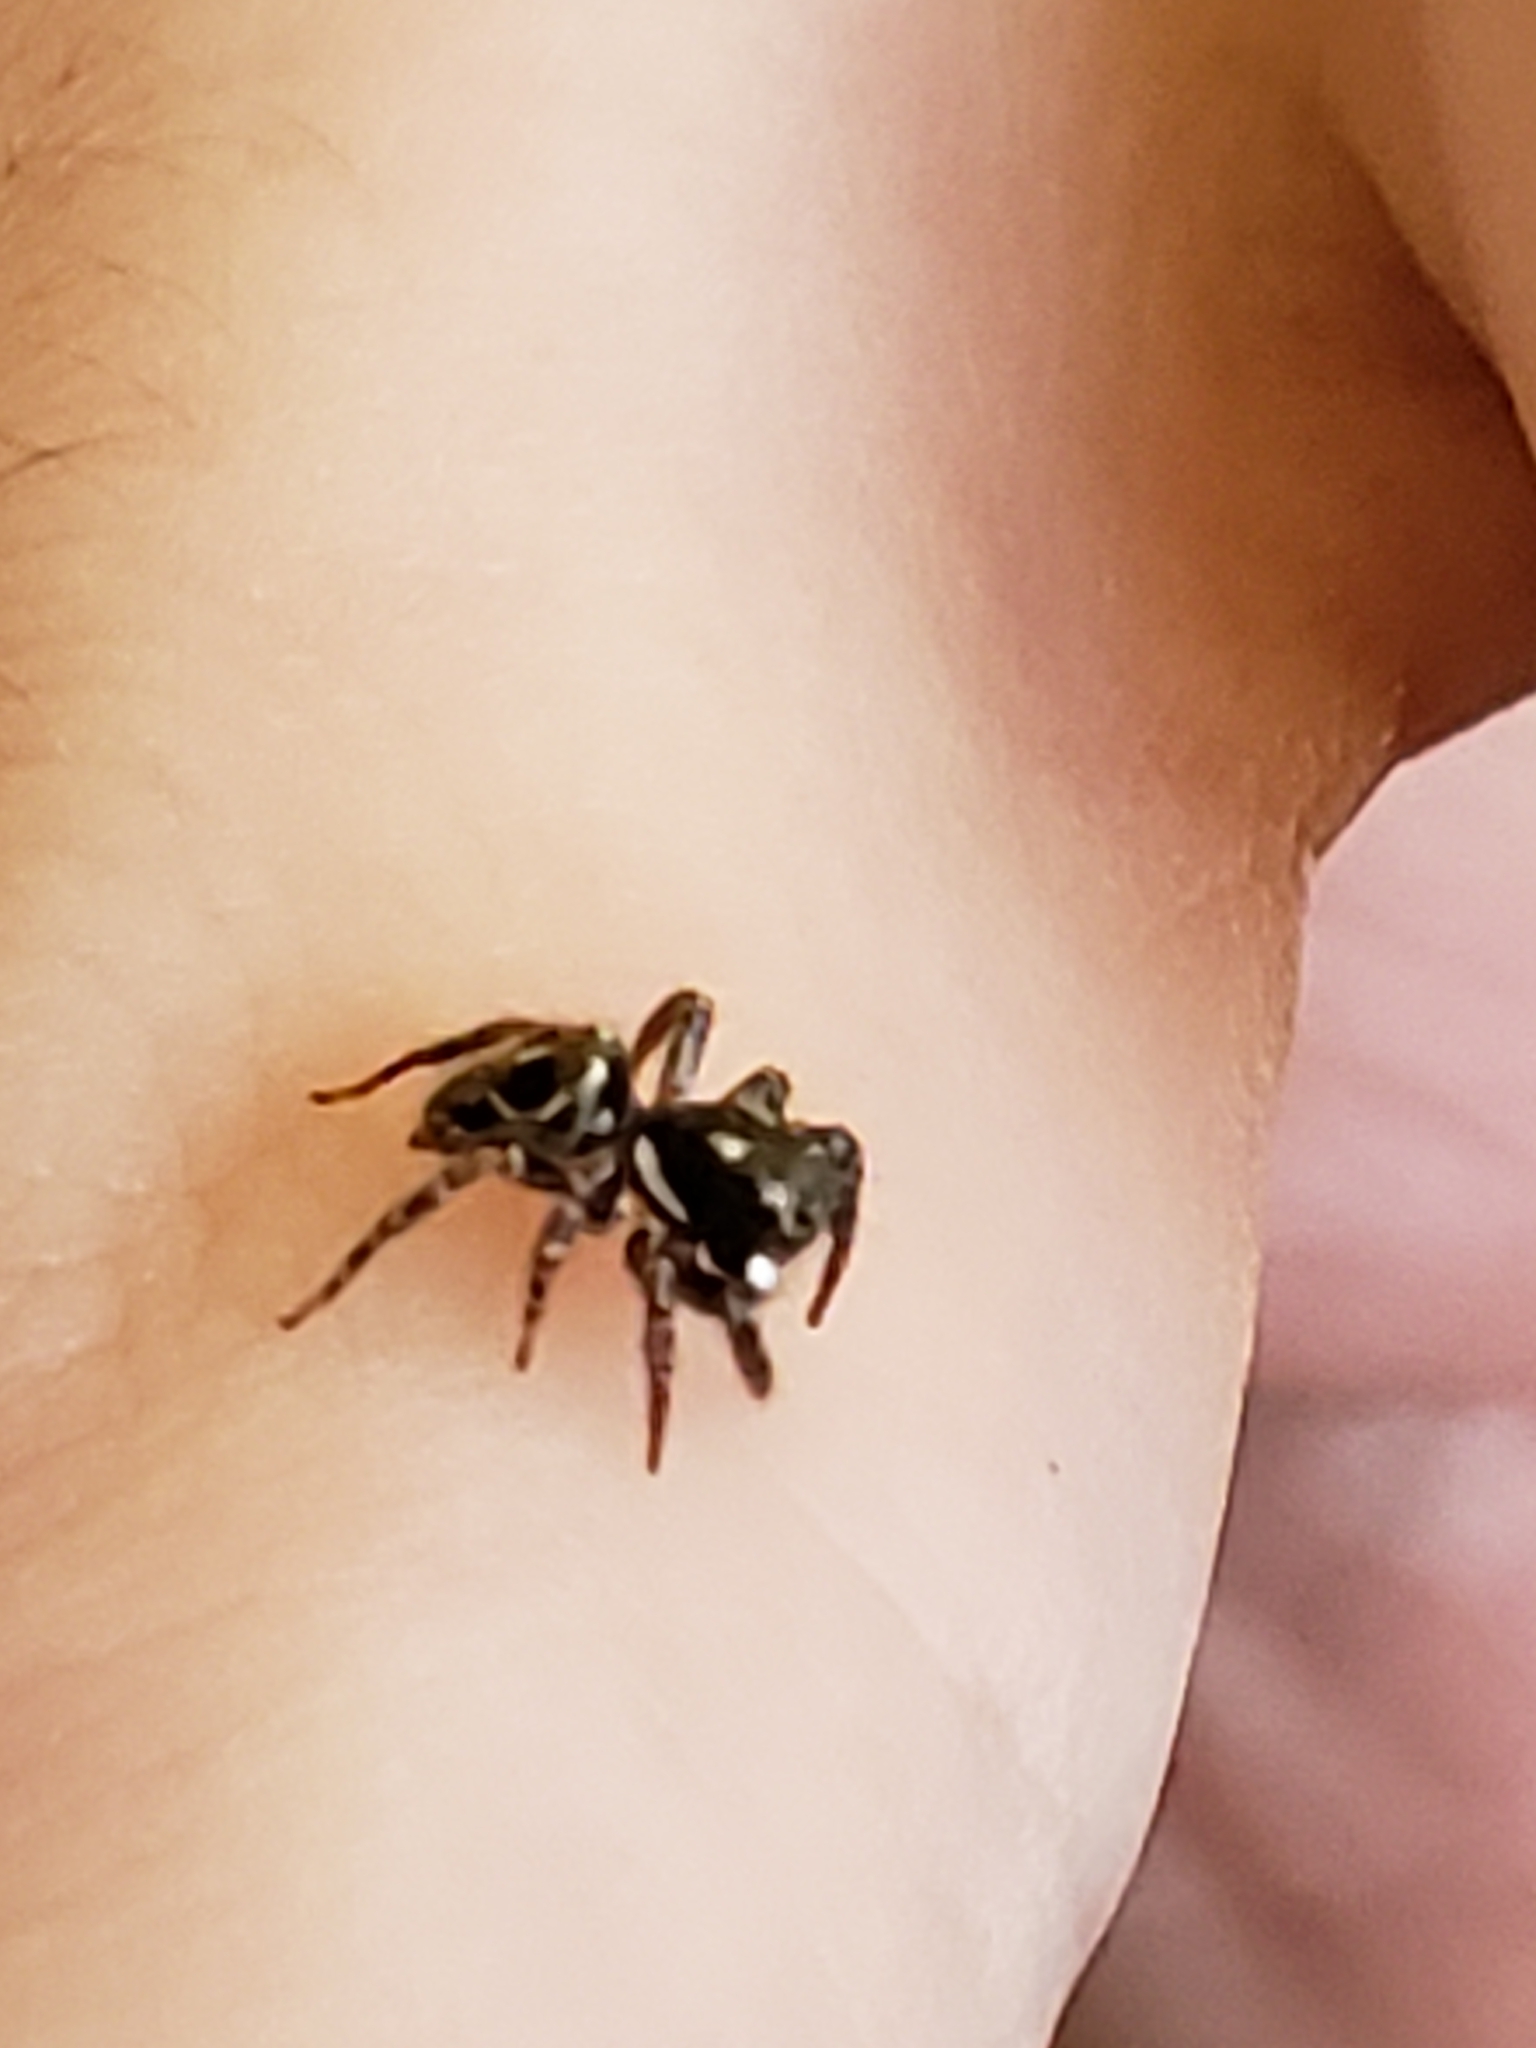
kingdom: Animalia
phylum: Arthropoda
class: Arachnida
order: Araneae
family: Salticidae
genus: Anasaitis
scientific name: Anasaitis canosa
